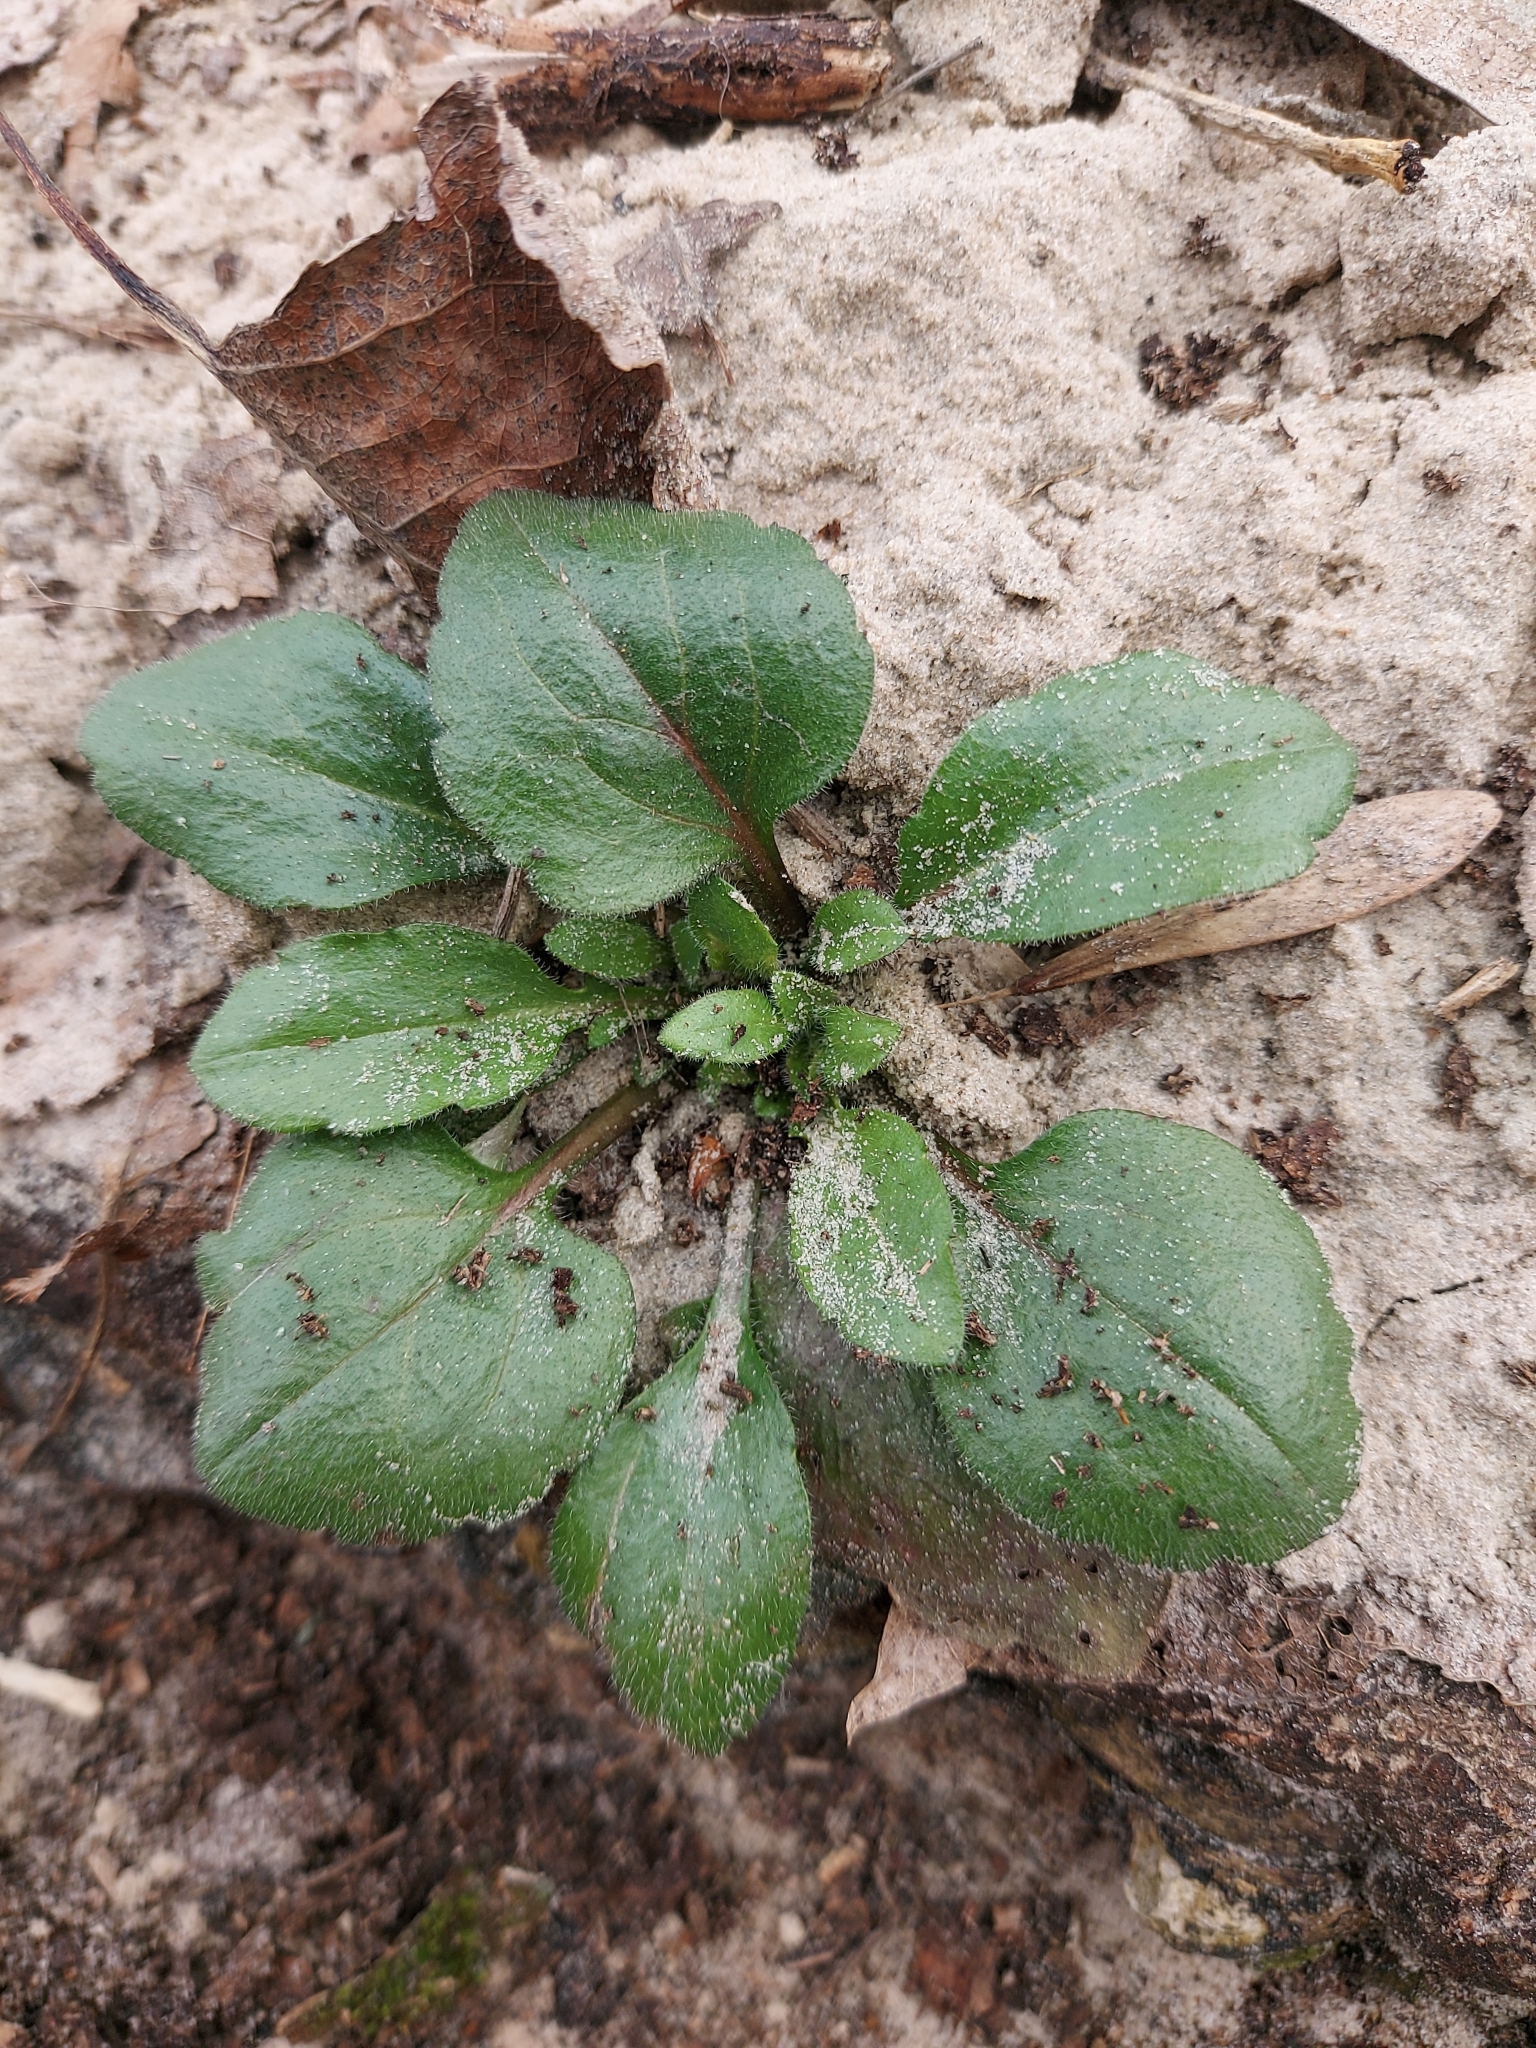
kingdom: Plantae
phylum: Tracheophyta
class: Magnoliopsida
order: Asterales
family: Asteraceae
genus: Erigeron
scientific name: Erigeron annuus
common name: Tall fleabane
